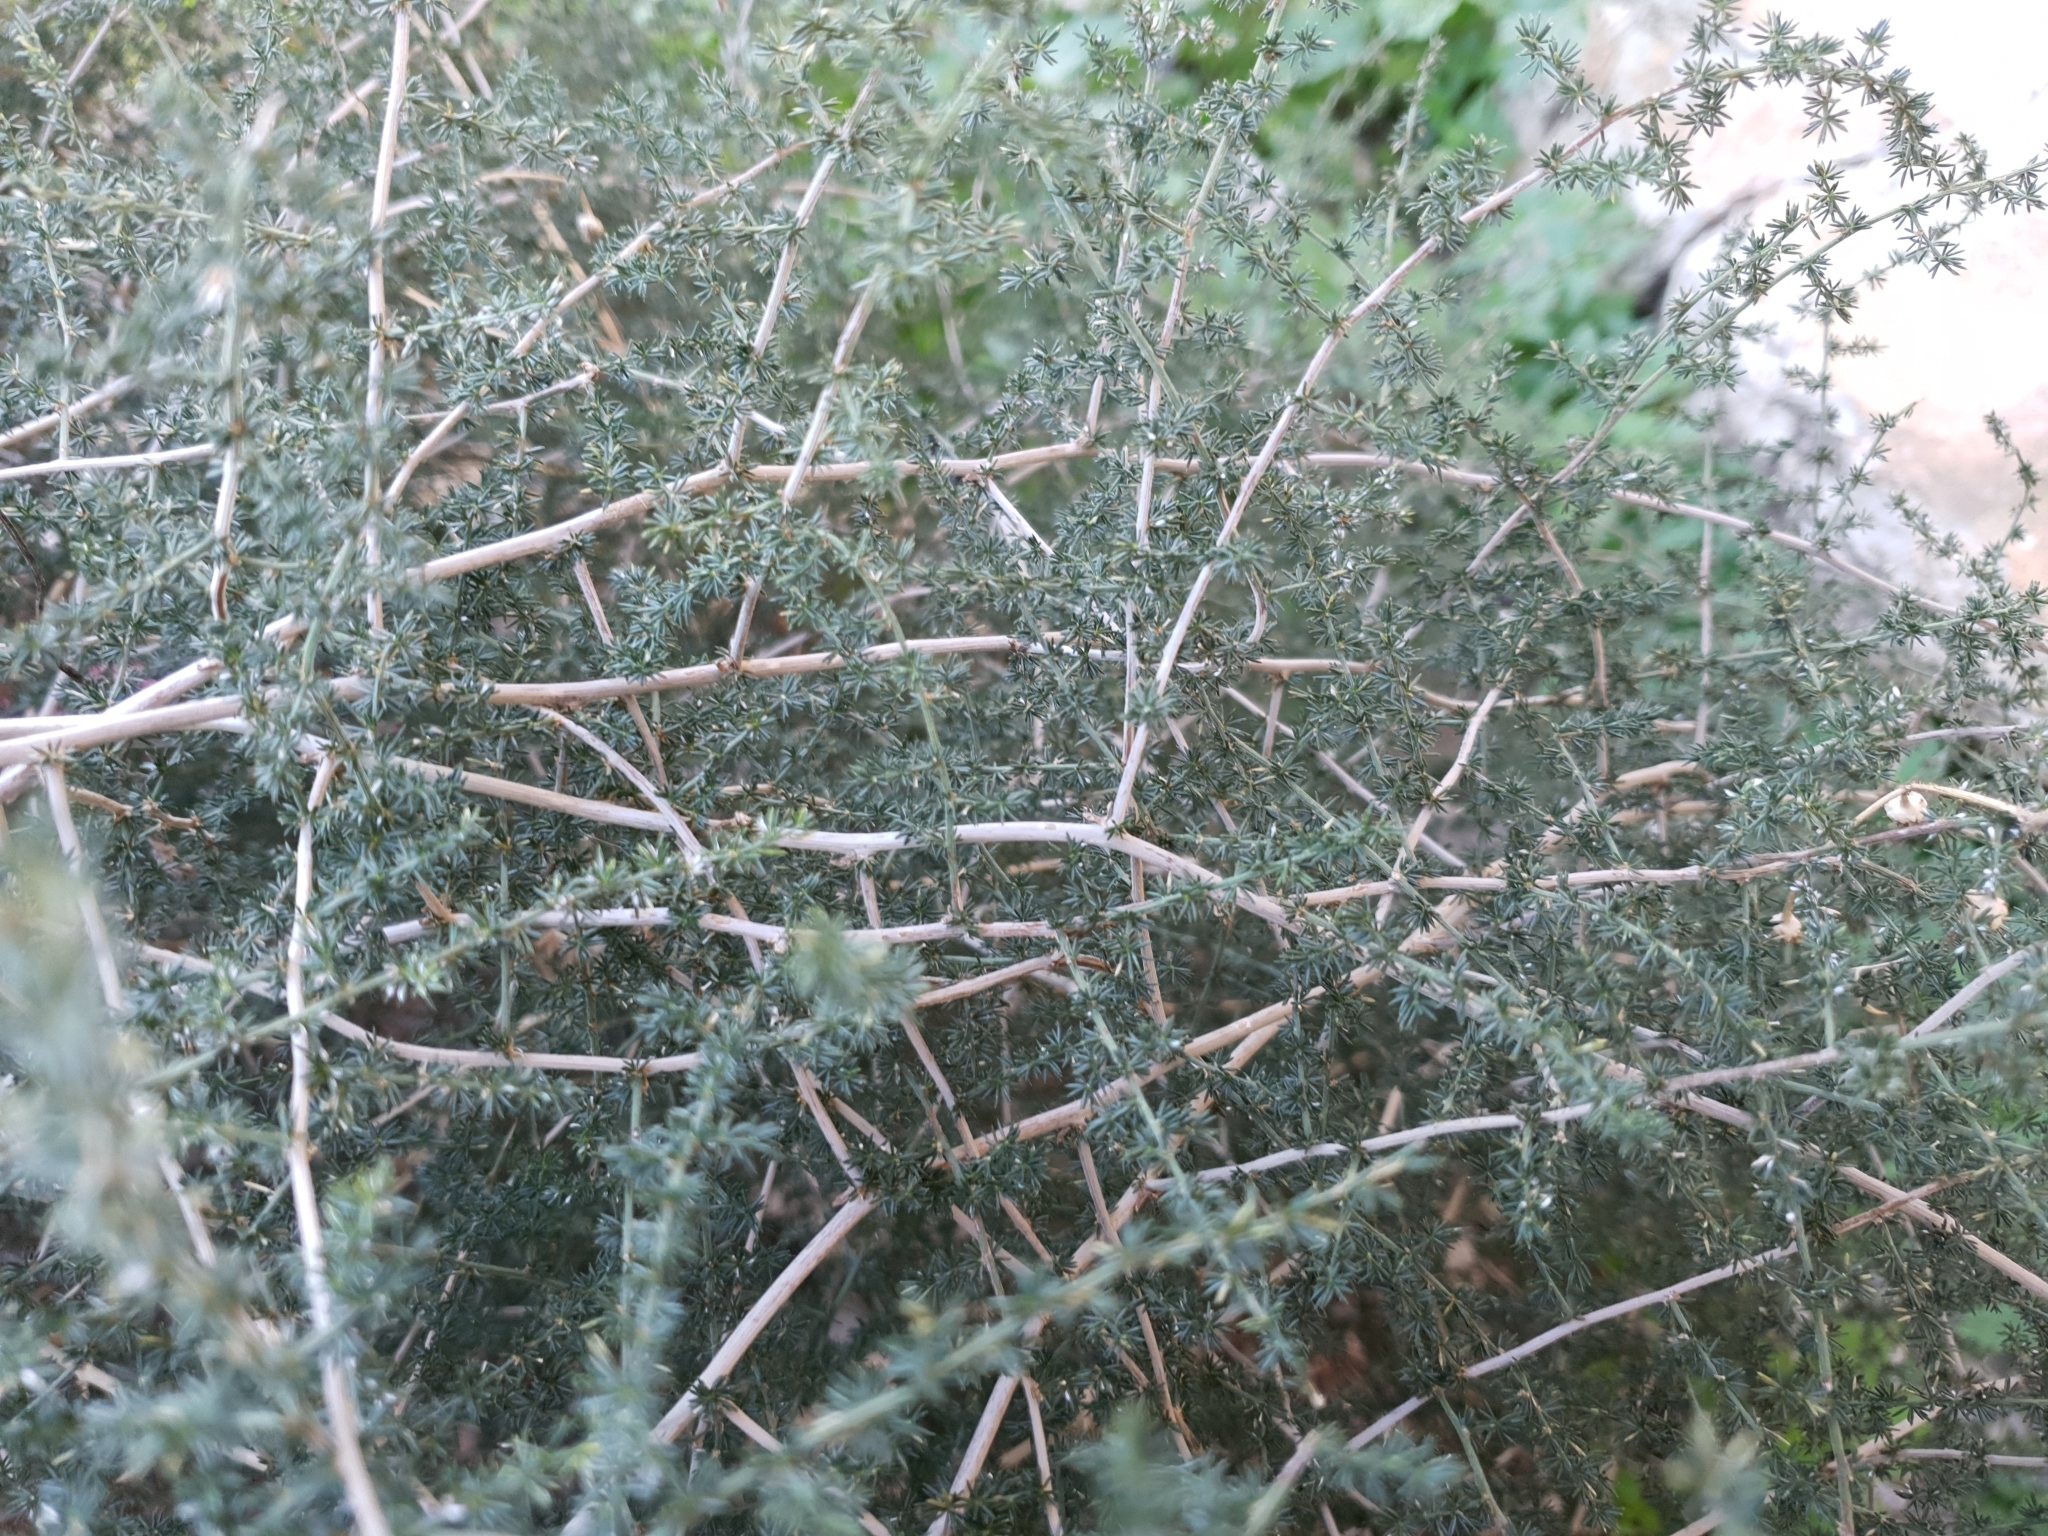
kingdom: Plantae
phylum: Tracheophyta
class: Liliopsida
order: Asparagales
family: Asparagaceae
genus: Asparagus
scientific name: Asparagus acutifolius
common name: Wild asparagus
